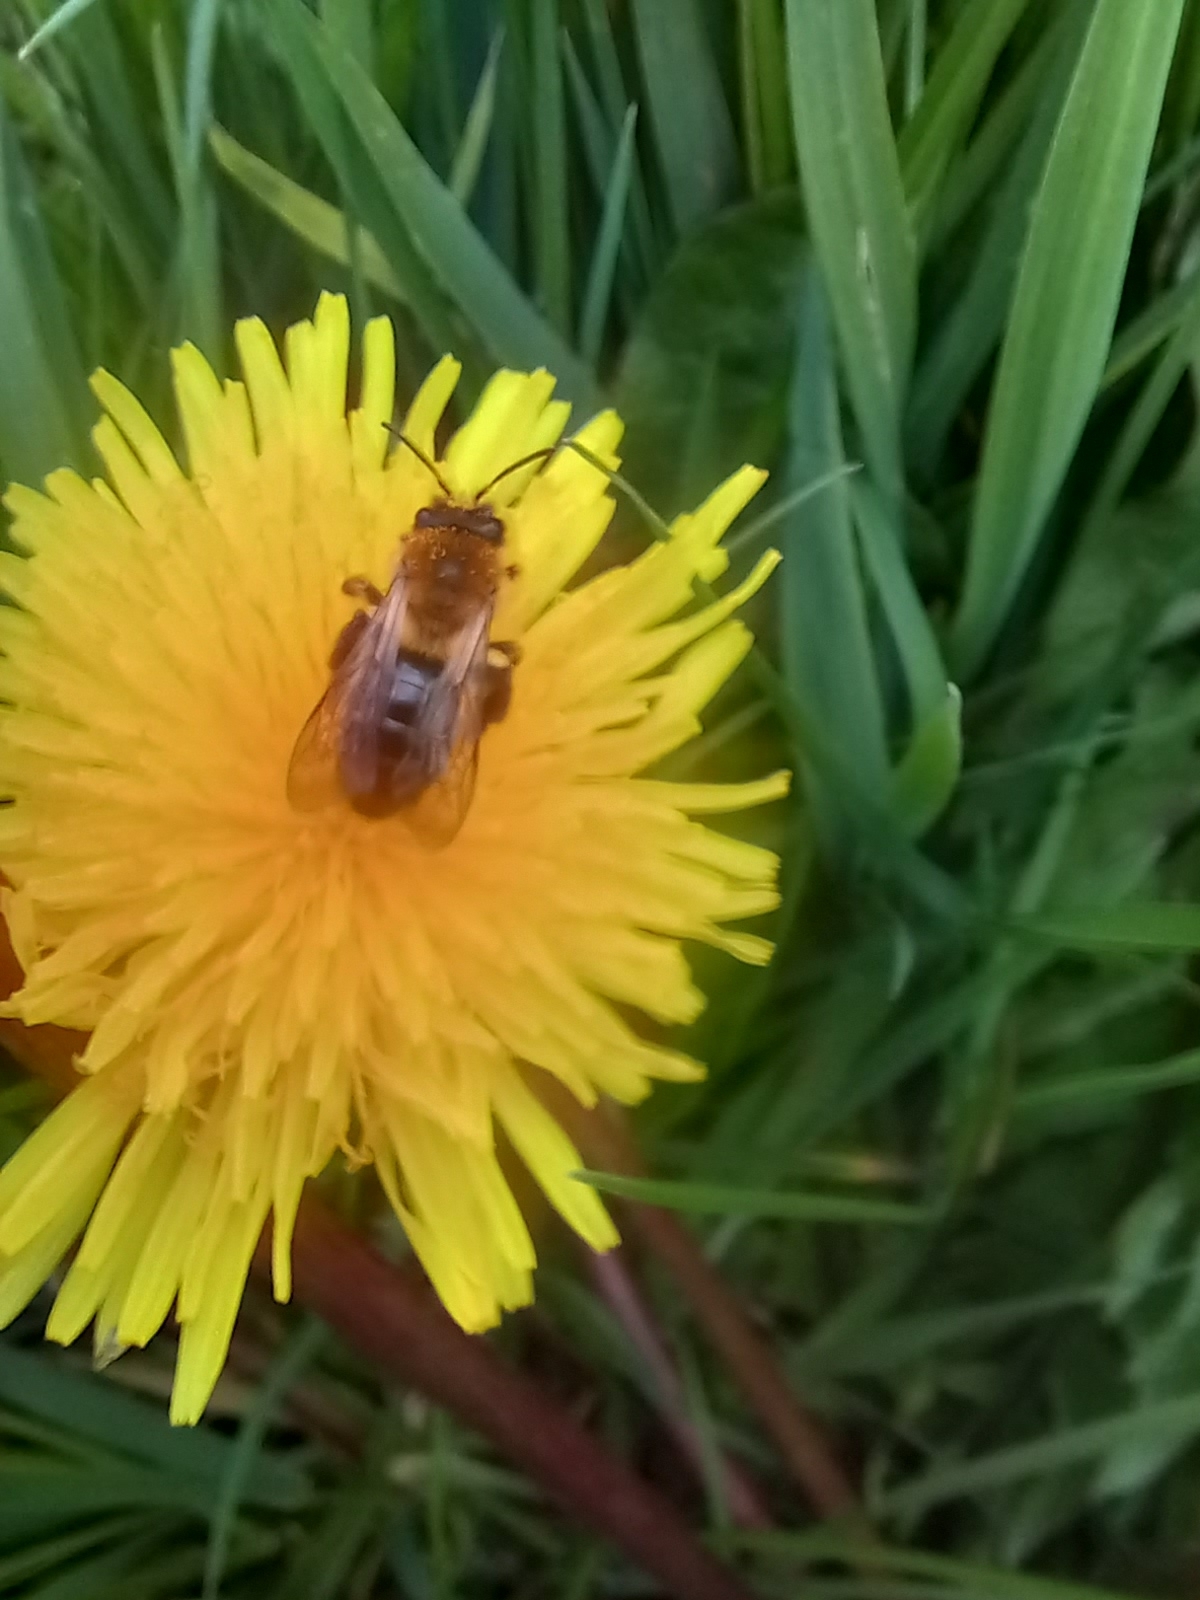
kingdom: Animalia
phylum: Arthropoda
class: Insecta
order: Hymenoptera
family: Andrenidae
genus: Andrena
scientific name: Andrena nitida
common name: Grey-patched mining bee
